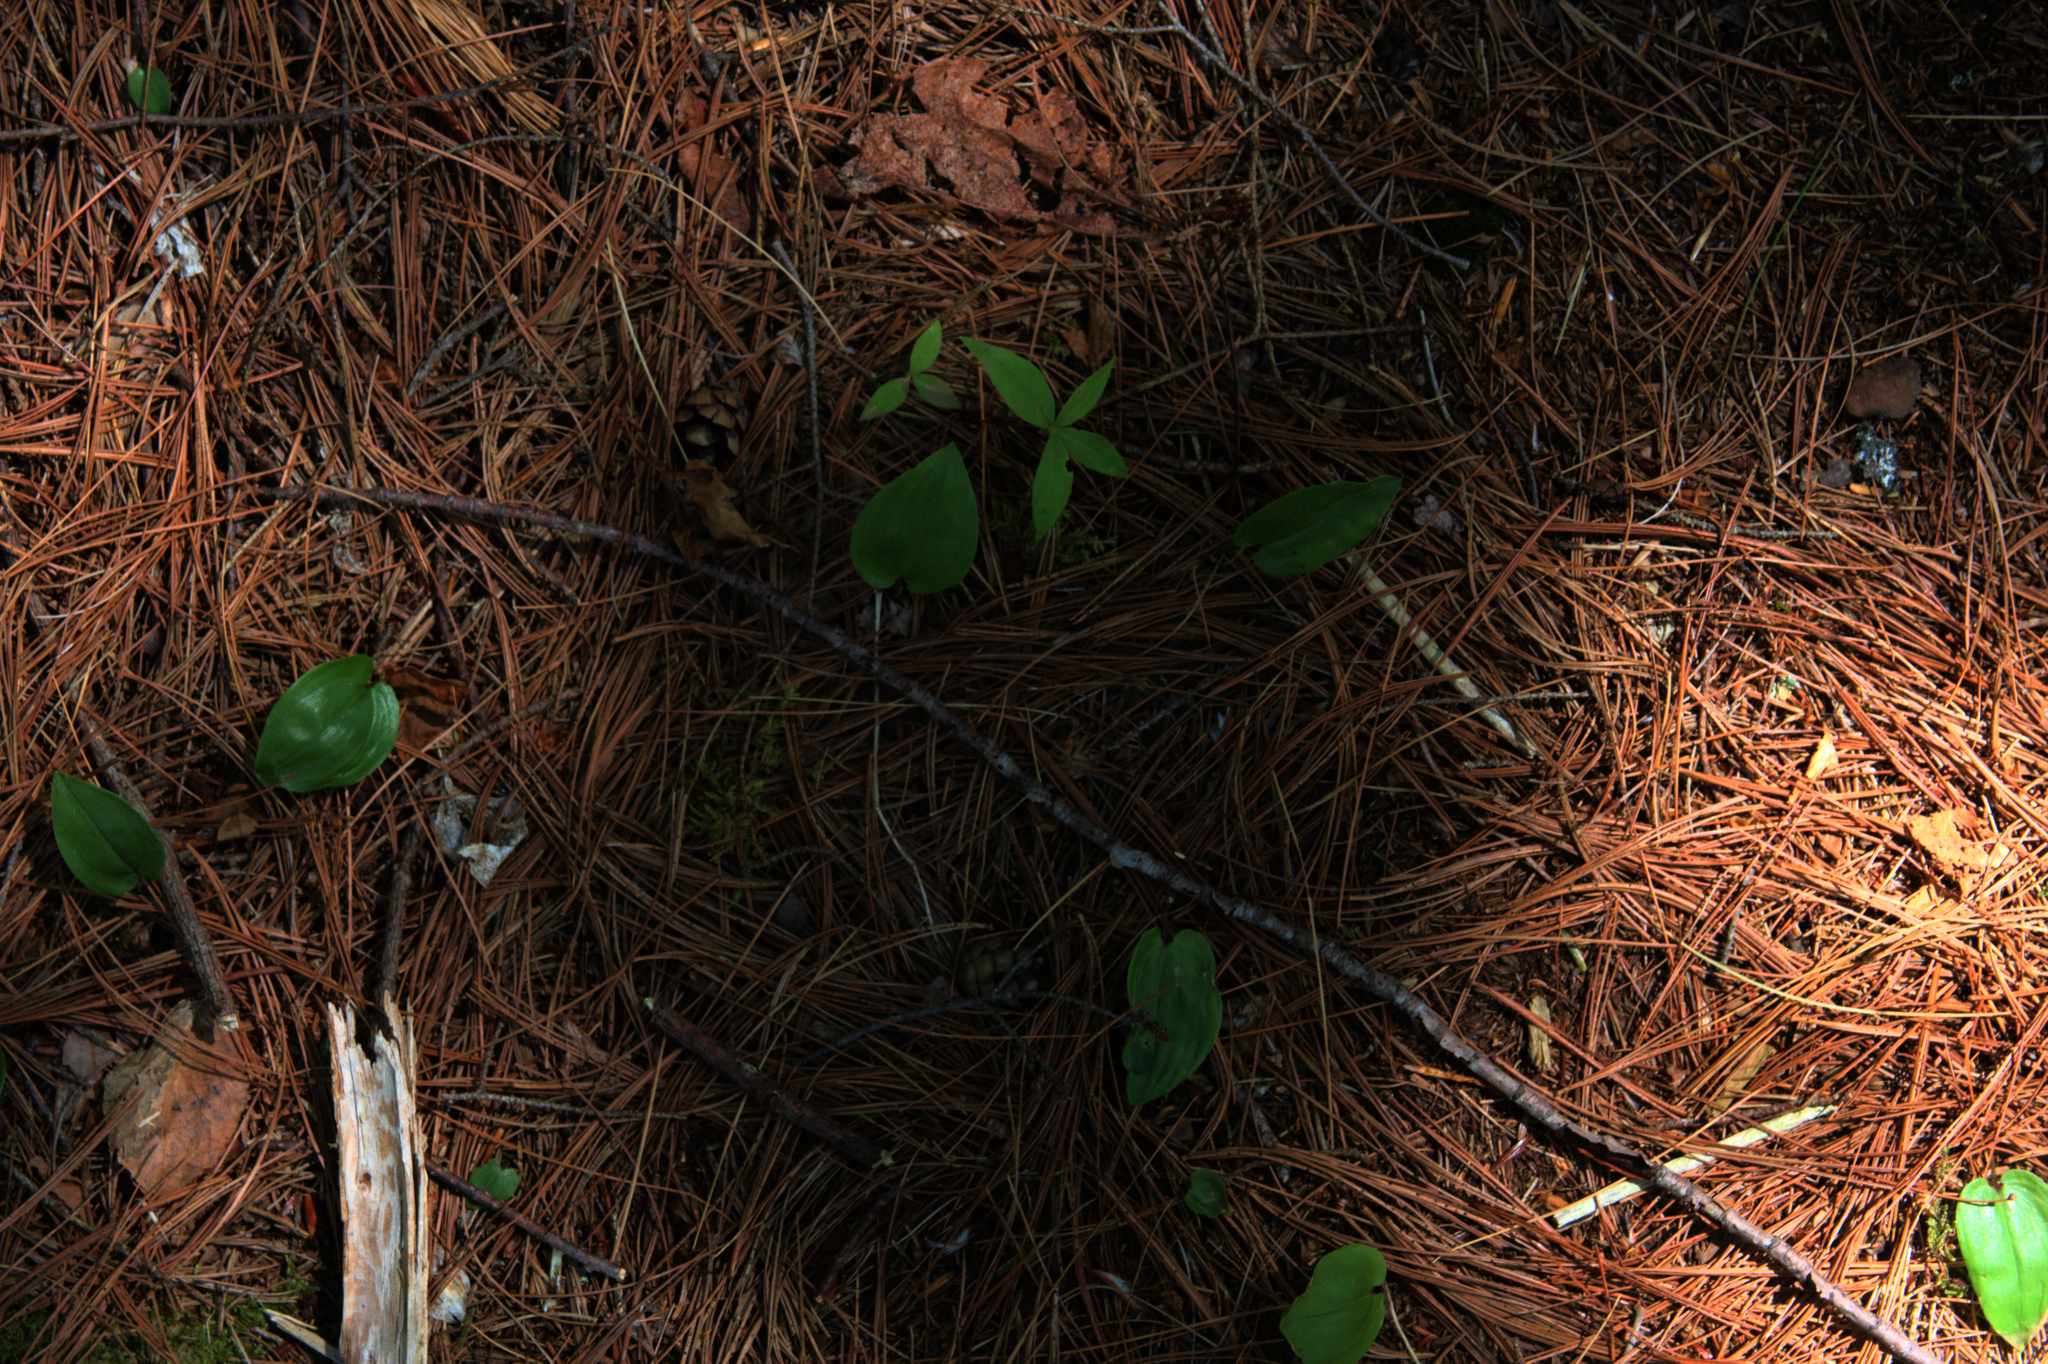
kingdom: Plantae
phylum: Tracheophyta
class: Magnoliopsida
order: Ericales
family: Primulaceae
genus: Lysimachia
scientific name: Lysimachia borealis
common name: American starflower
